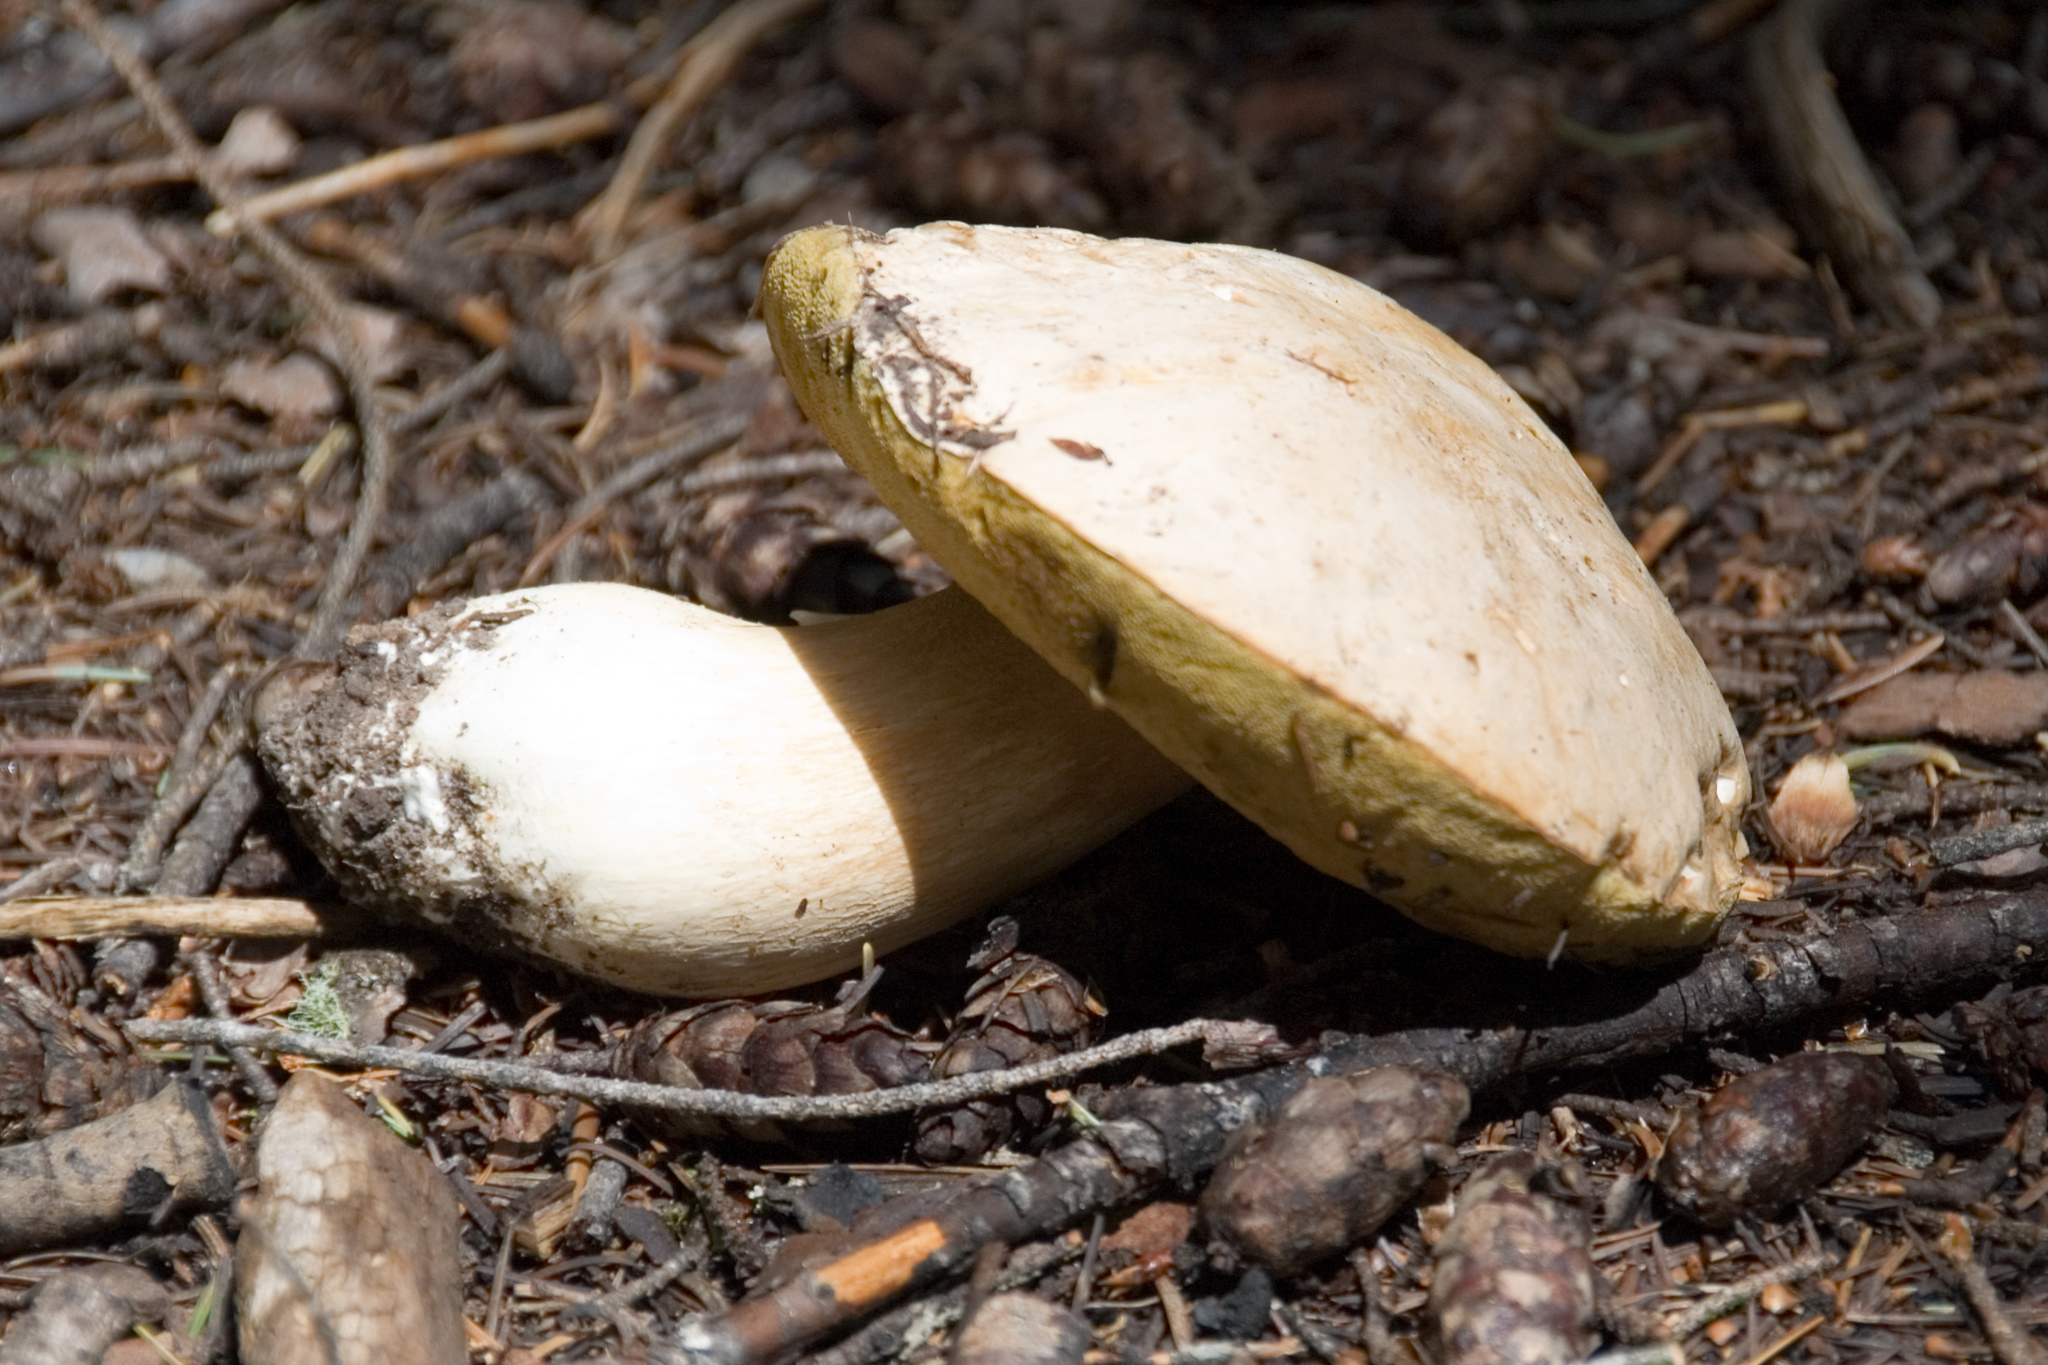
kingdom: Fungi
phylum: Basidiomycota
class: Agaricomycetes
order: Boletales
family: Boletaceae
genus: Boletus
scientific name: Boletus barrowsii
